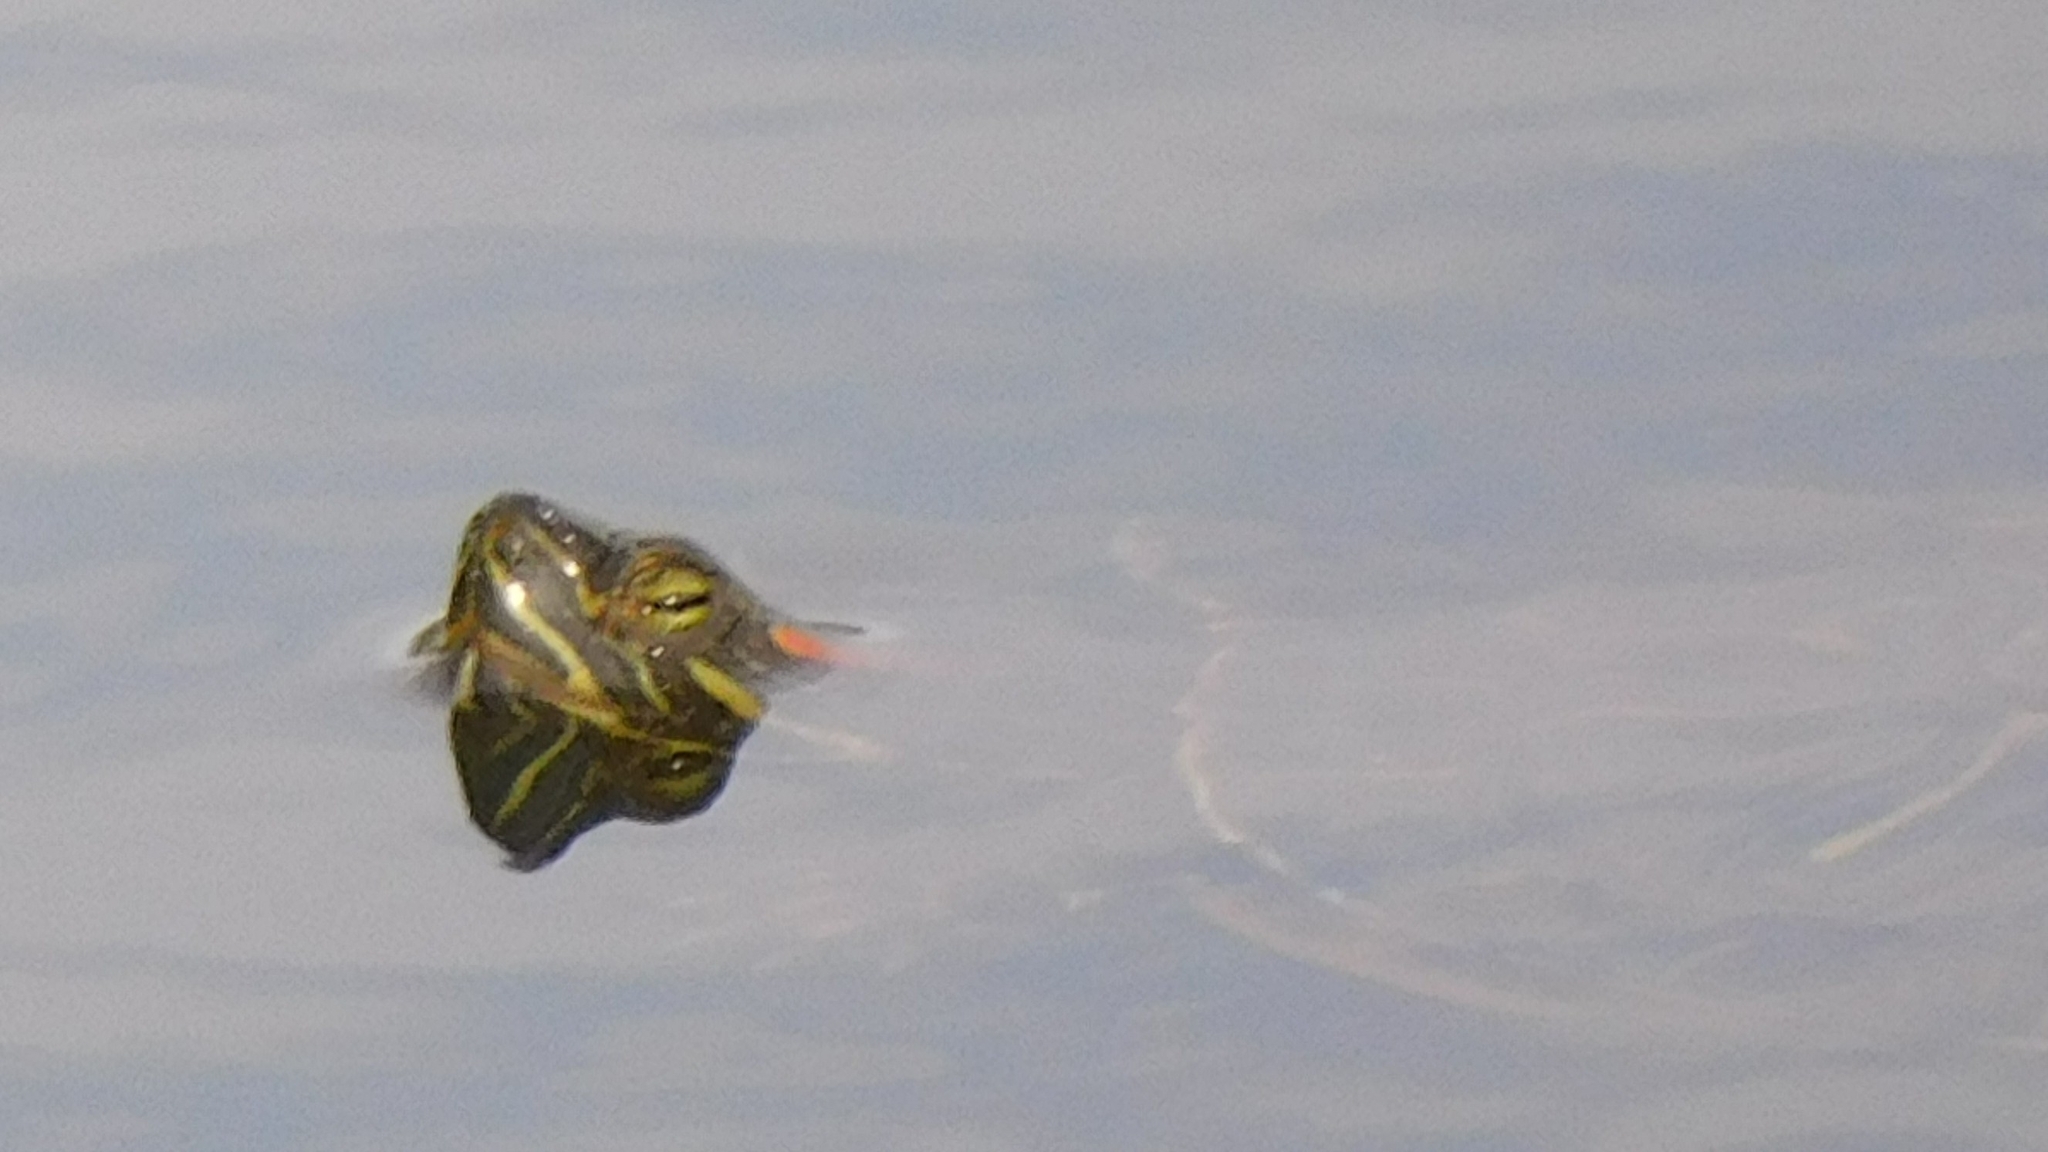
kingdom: Animalia
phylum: Chordata
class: Testudines
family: Emydidae
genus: Trachemys
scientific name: Trachemys scripta
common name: Slider
